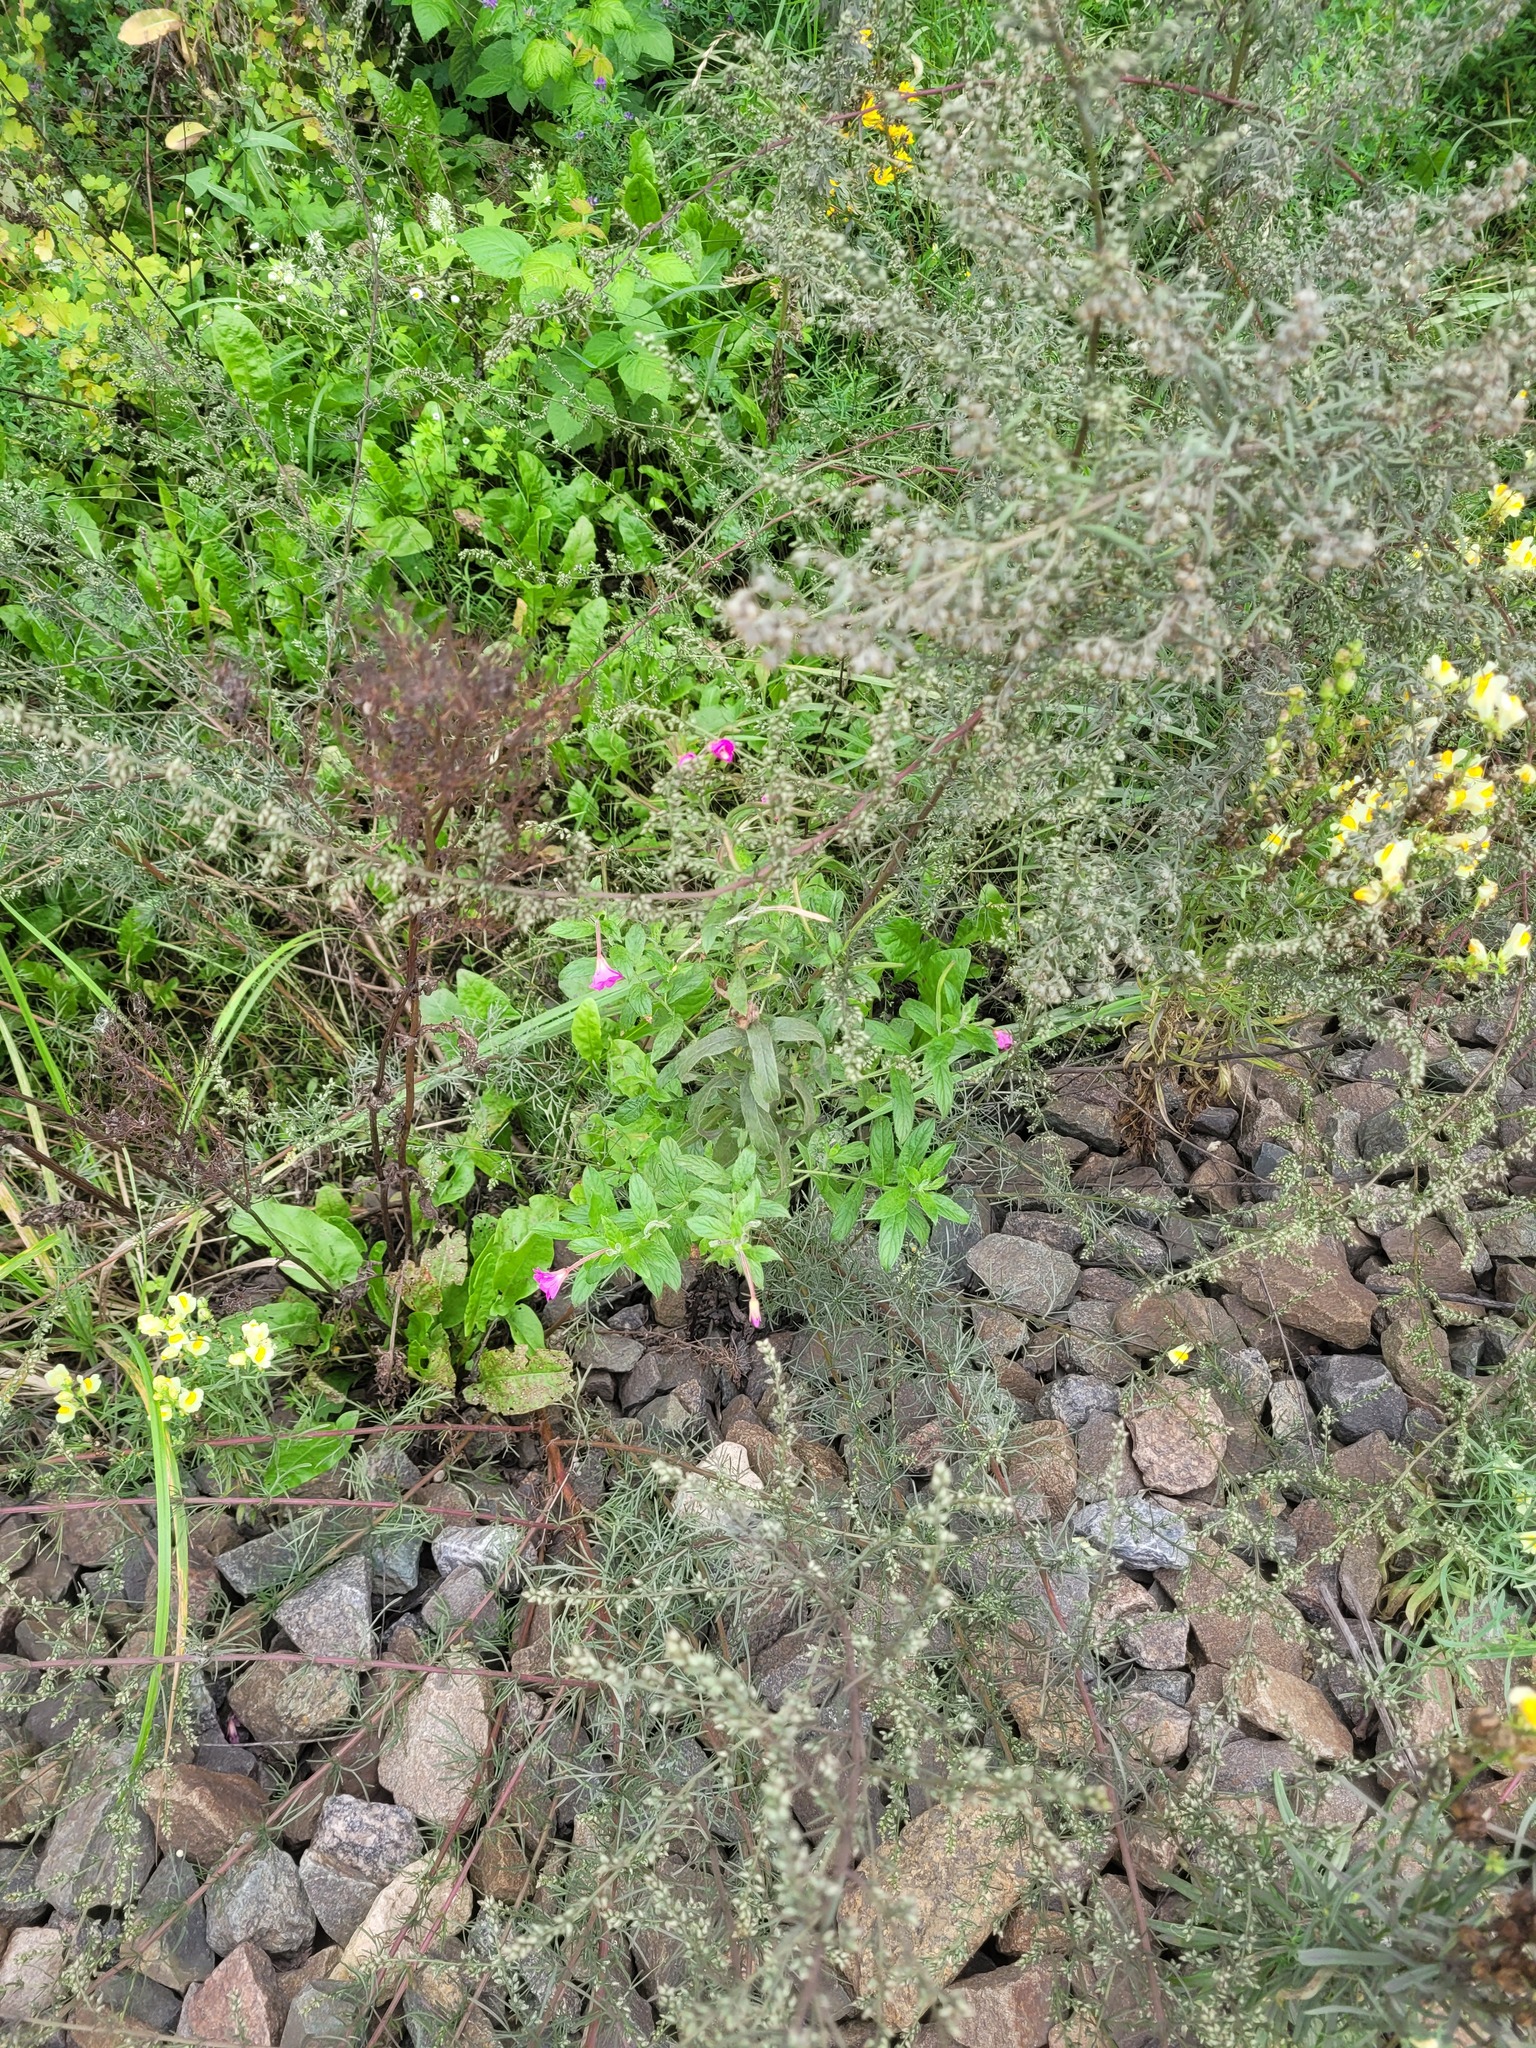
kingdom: Plantae
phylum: Tracheophyta
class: Magnoliopsida
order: Myrtales
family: Onagraceae
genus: Epilobium
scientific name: Epilobium hirsutum
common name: Great willowherb
